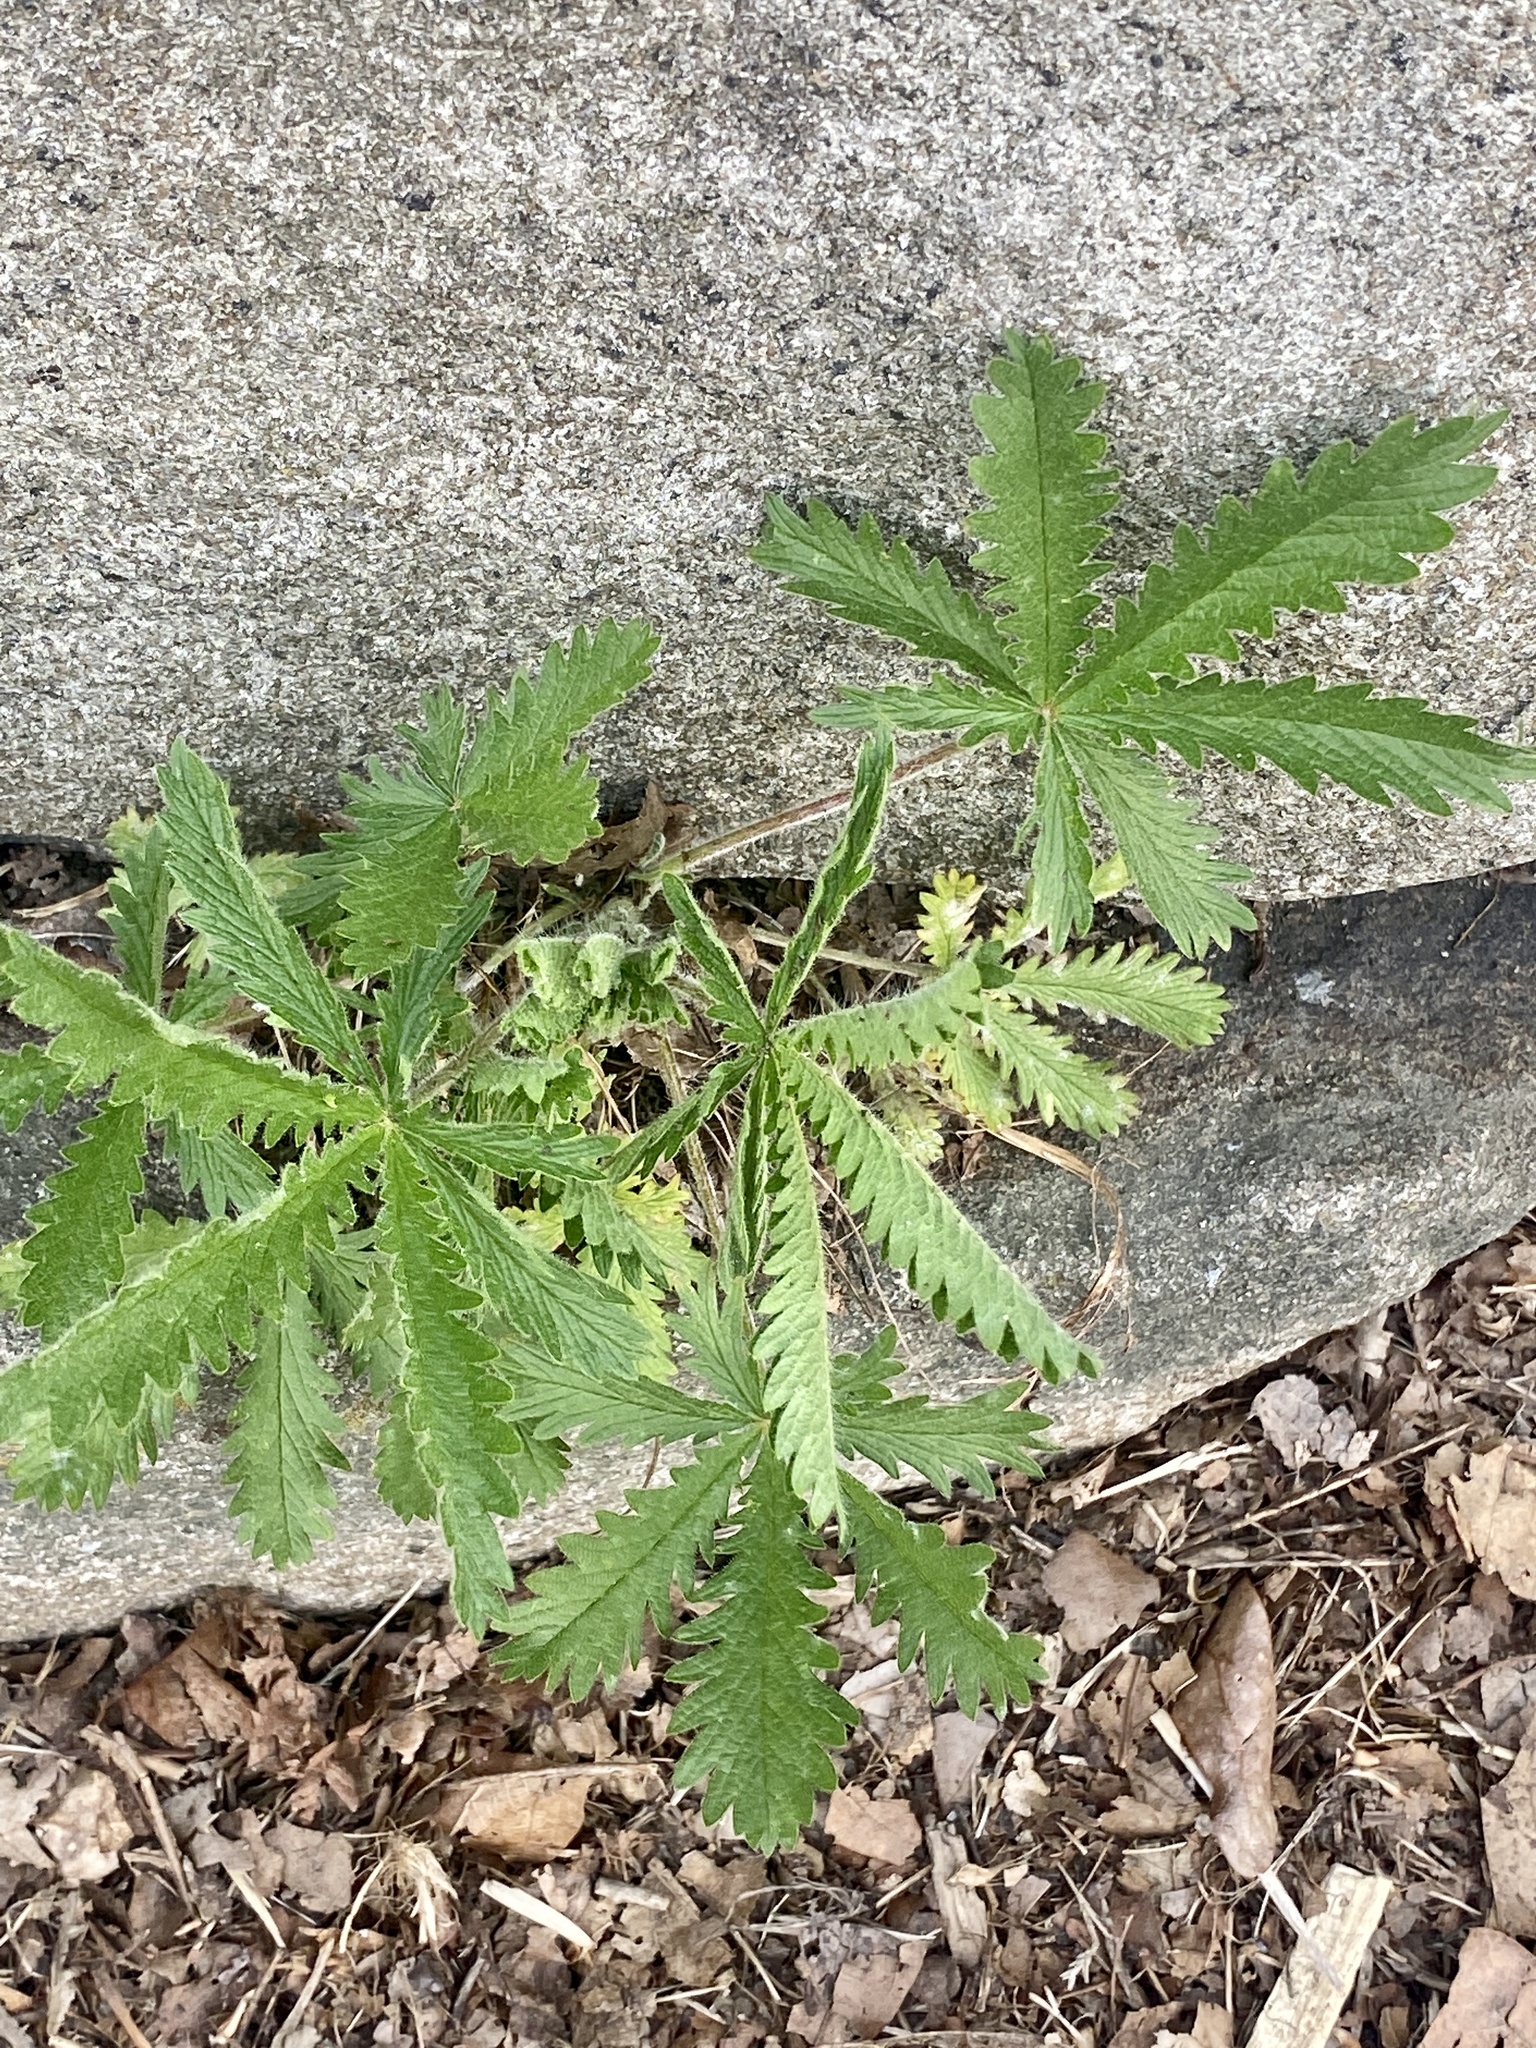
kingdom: Plantae
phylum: Tracheophyta
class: Magnoliopsida
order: Rosales
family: Rosaceae
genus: Potentilla
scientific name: Potentilla recta
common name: Sulphur cinquefoil
